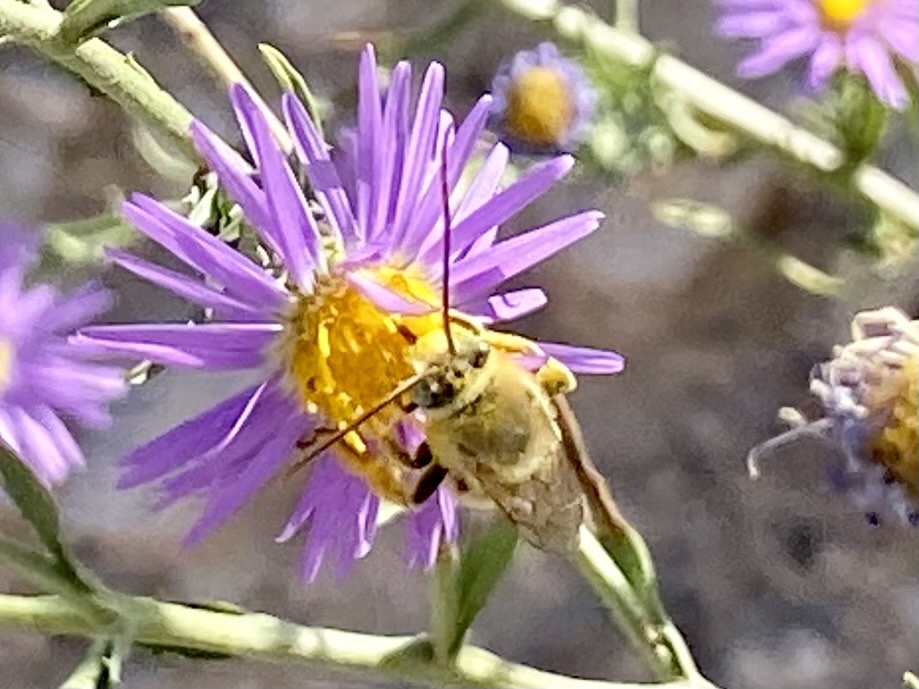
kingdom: Animalia
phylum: Arthropoda
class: Insecta
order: Hymenoptera
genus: Epimelissodes
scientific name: Epimelissodes
